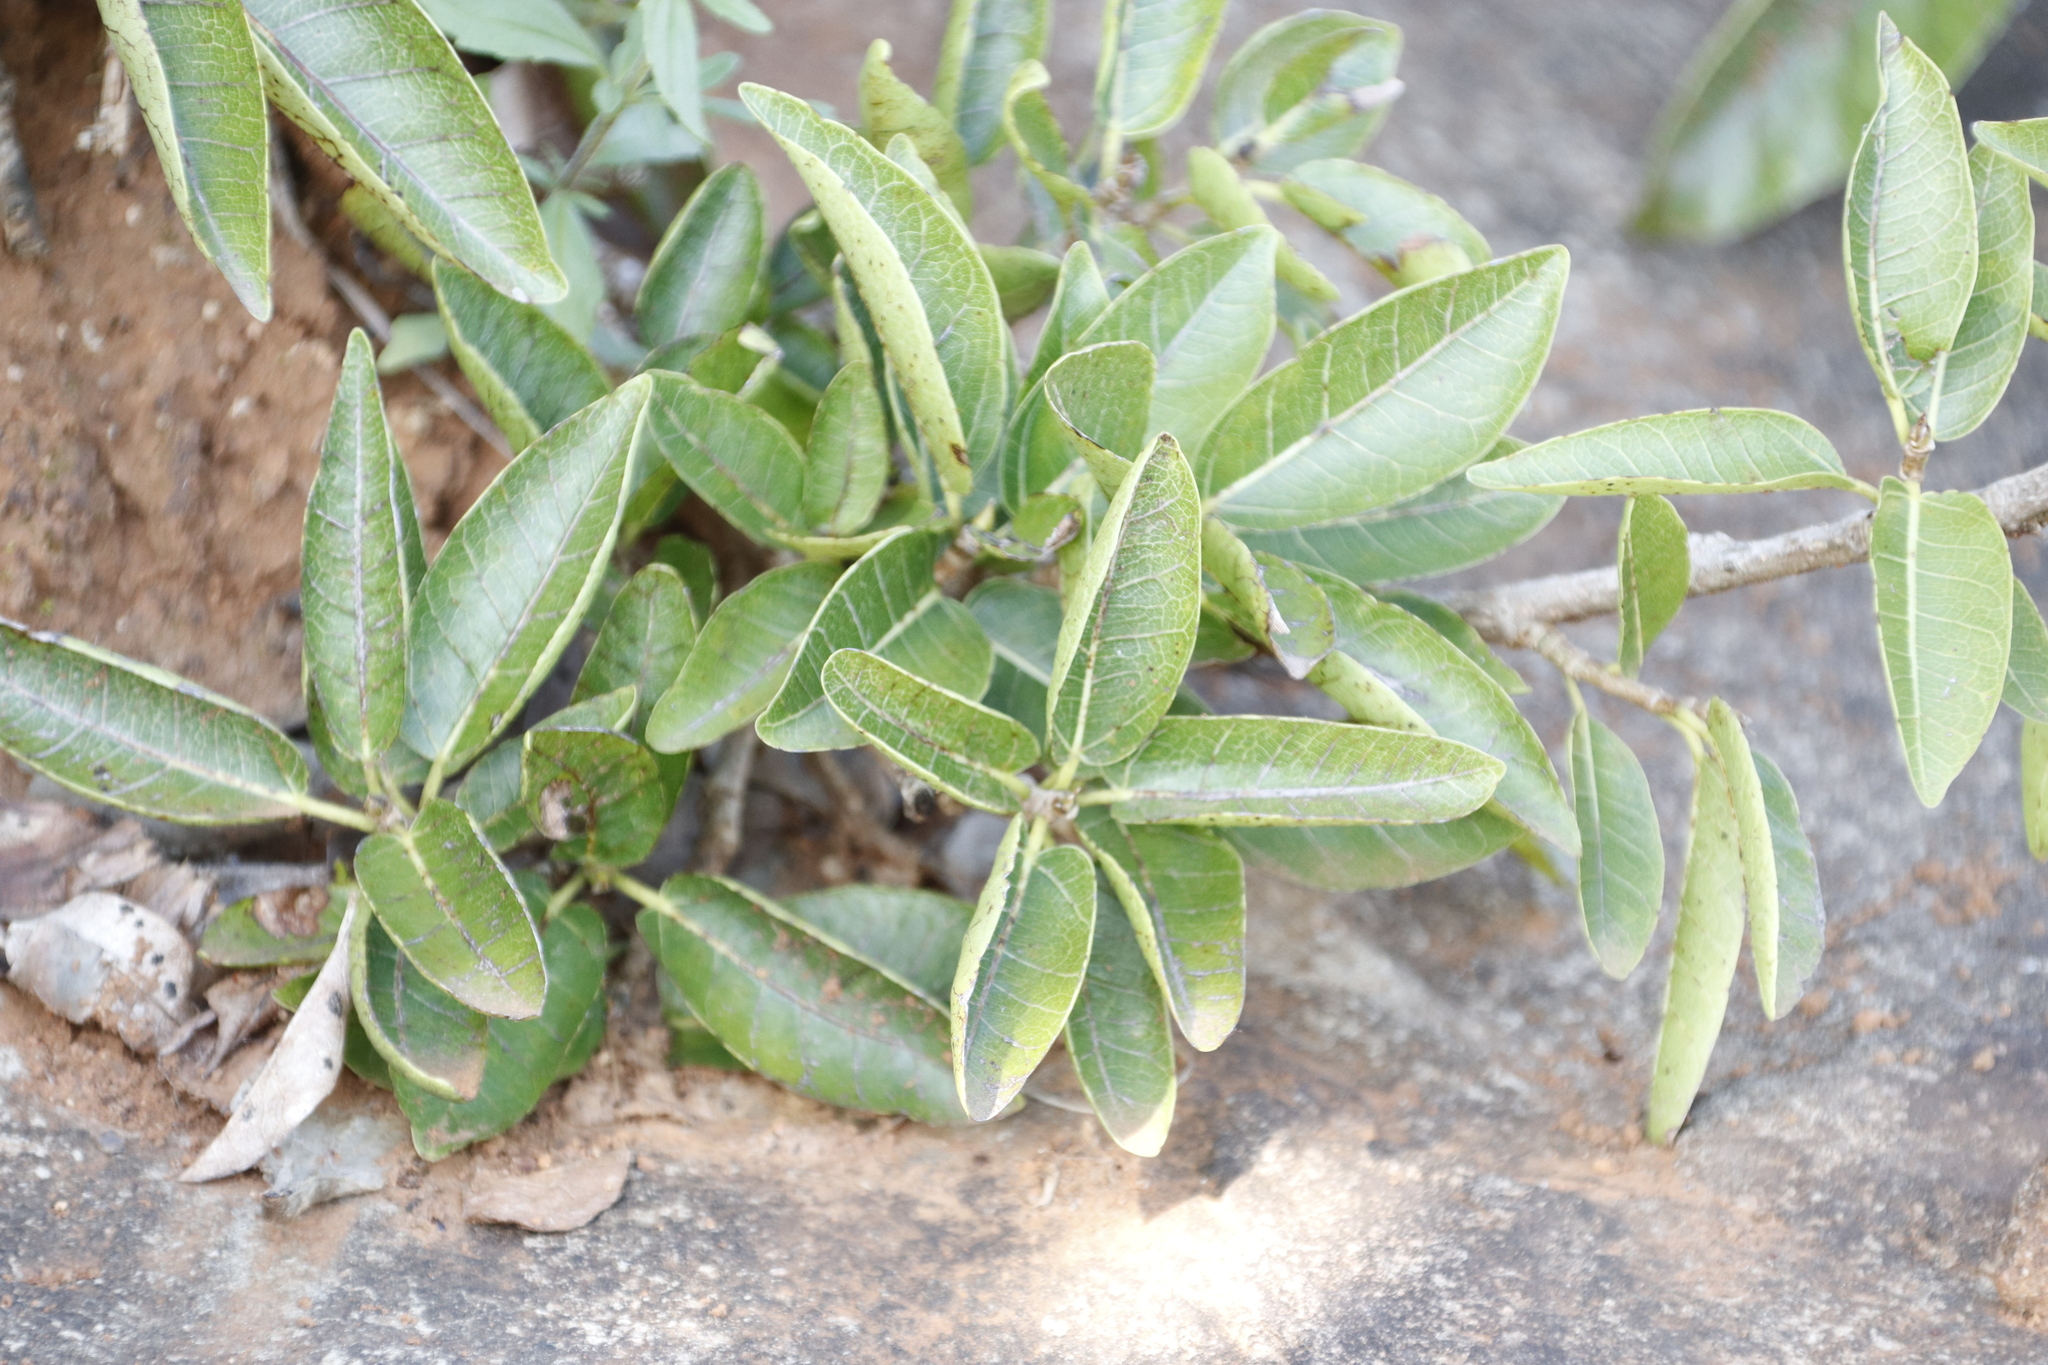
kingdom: Plantae
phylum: Tracheophyta
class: Magnoliopsida
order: Rosales
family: Moraceae
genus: Ficus
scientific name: Ficus ingens
